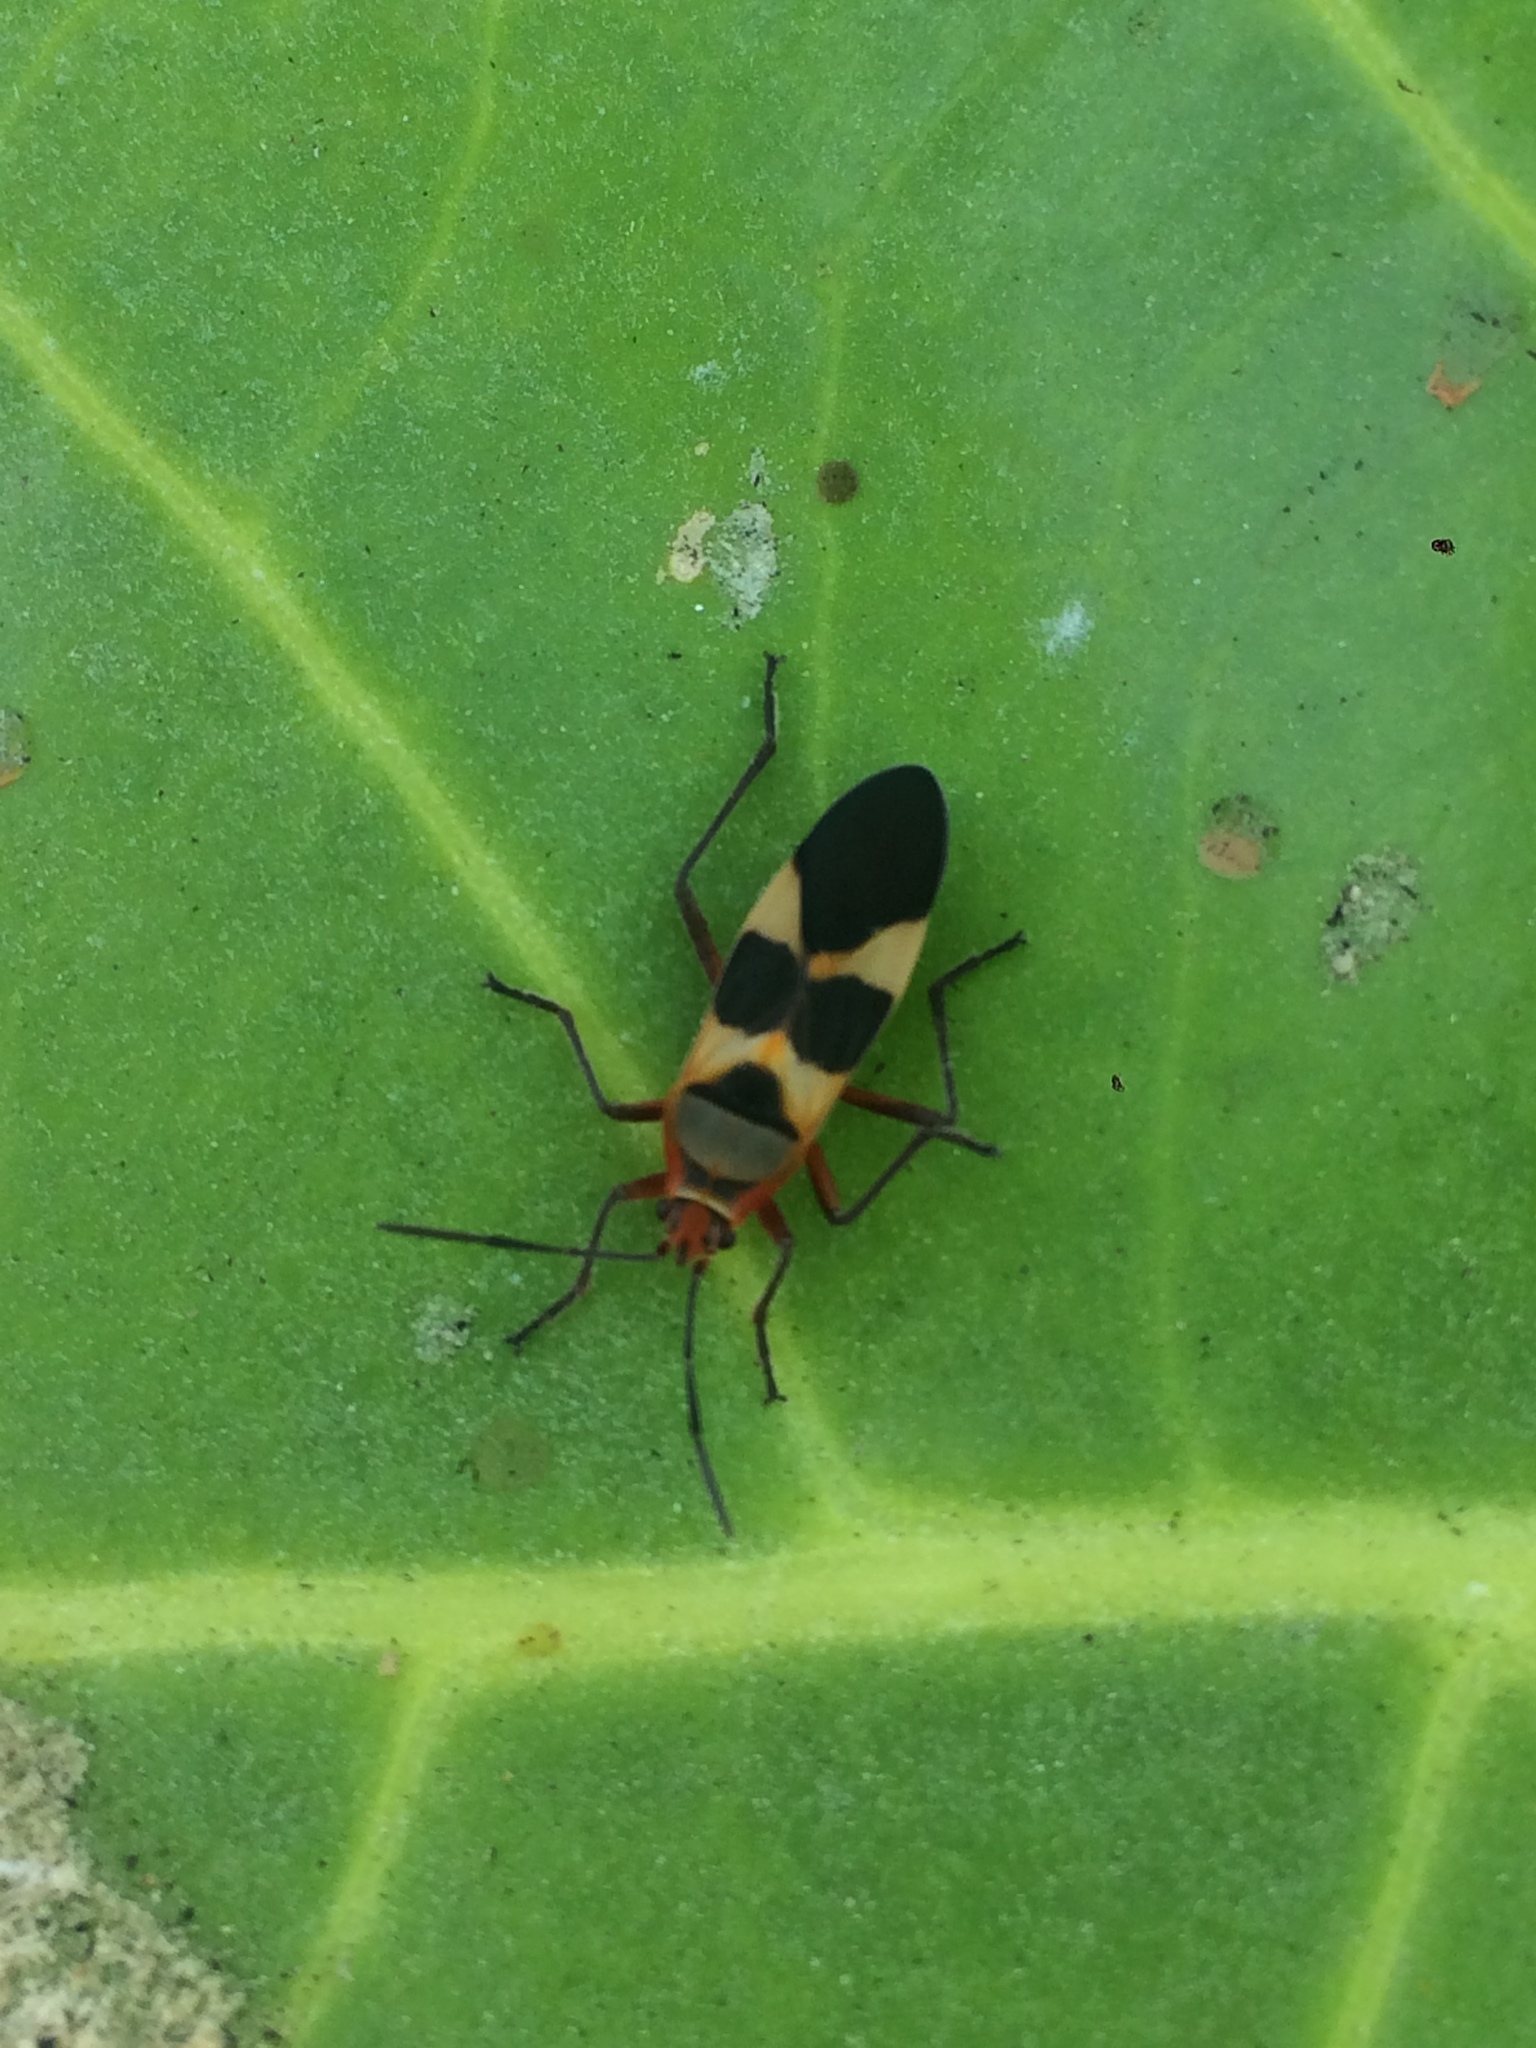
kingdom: Animalia
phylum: Arthropoda
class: Insecta
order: Hemiptera
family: Lygaeidae
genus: Oncopeltus
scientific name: Oncopeltus unifasciatellus
